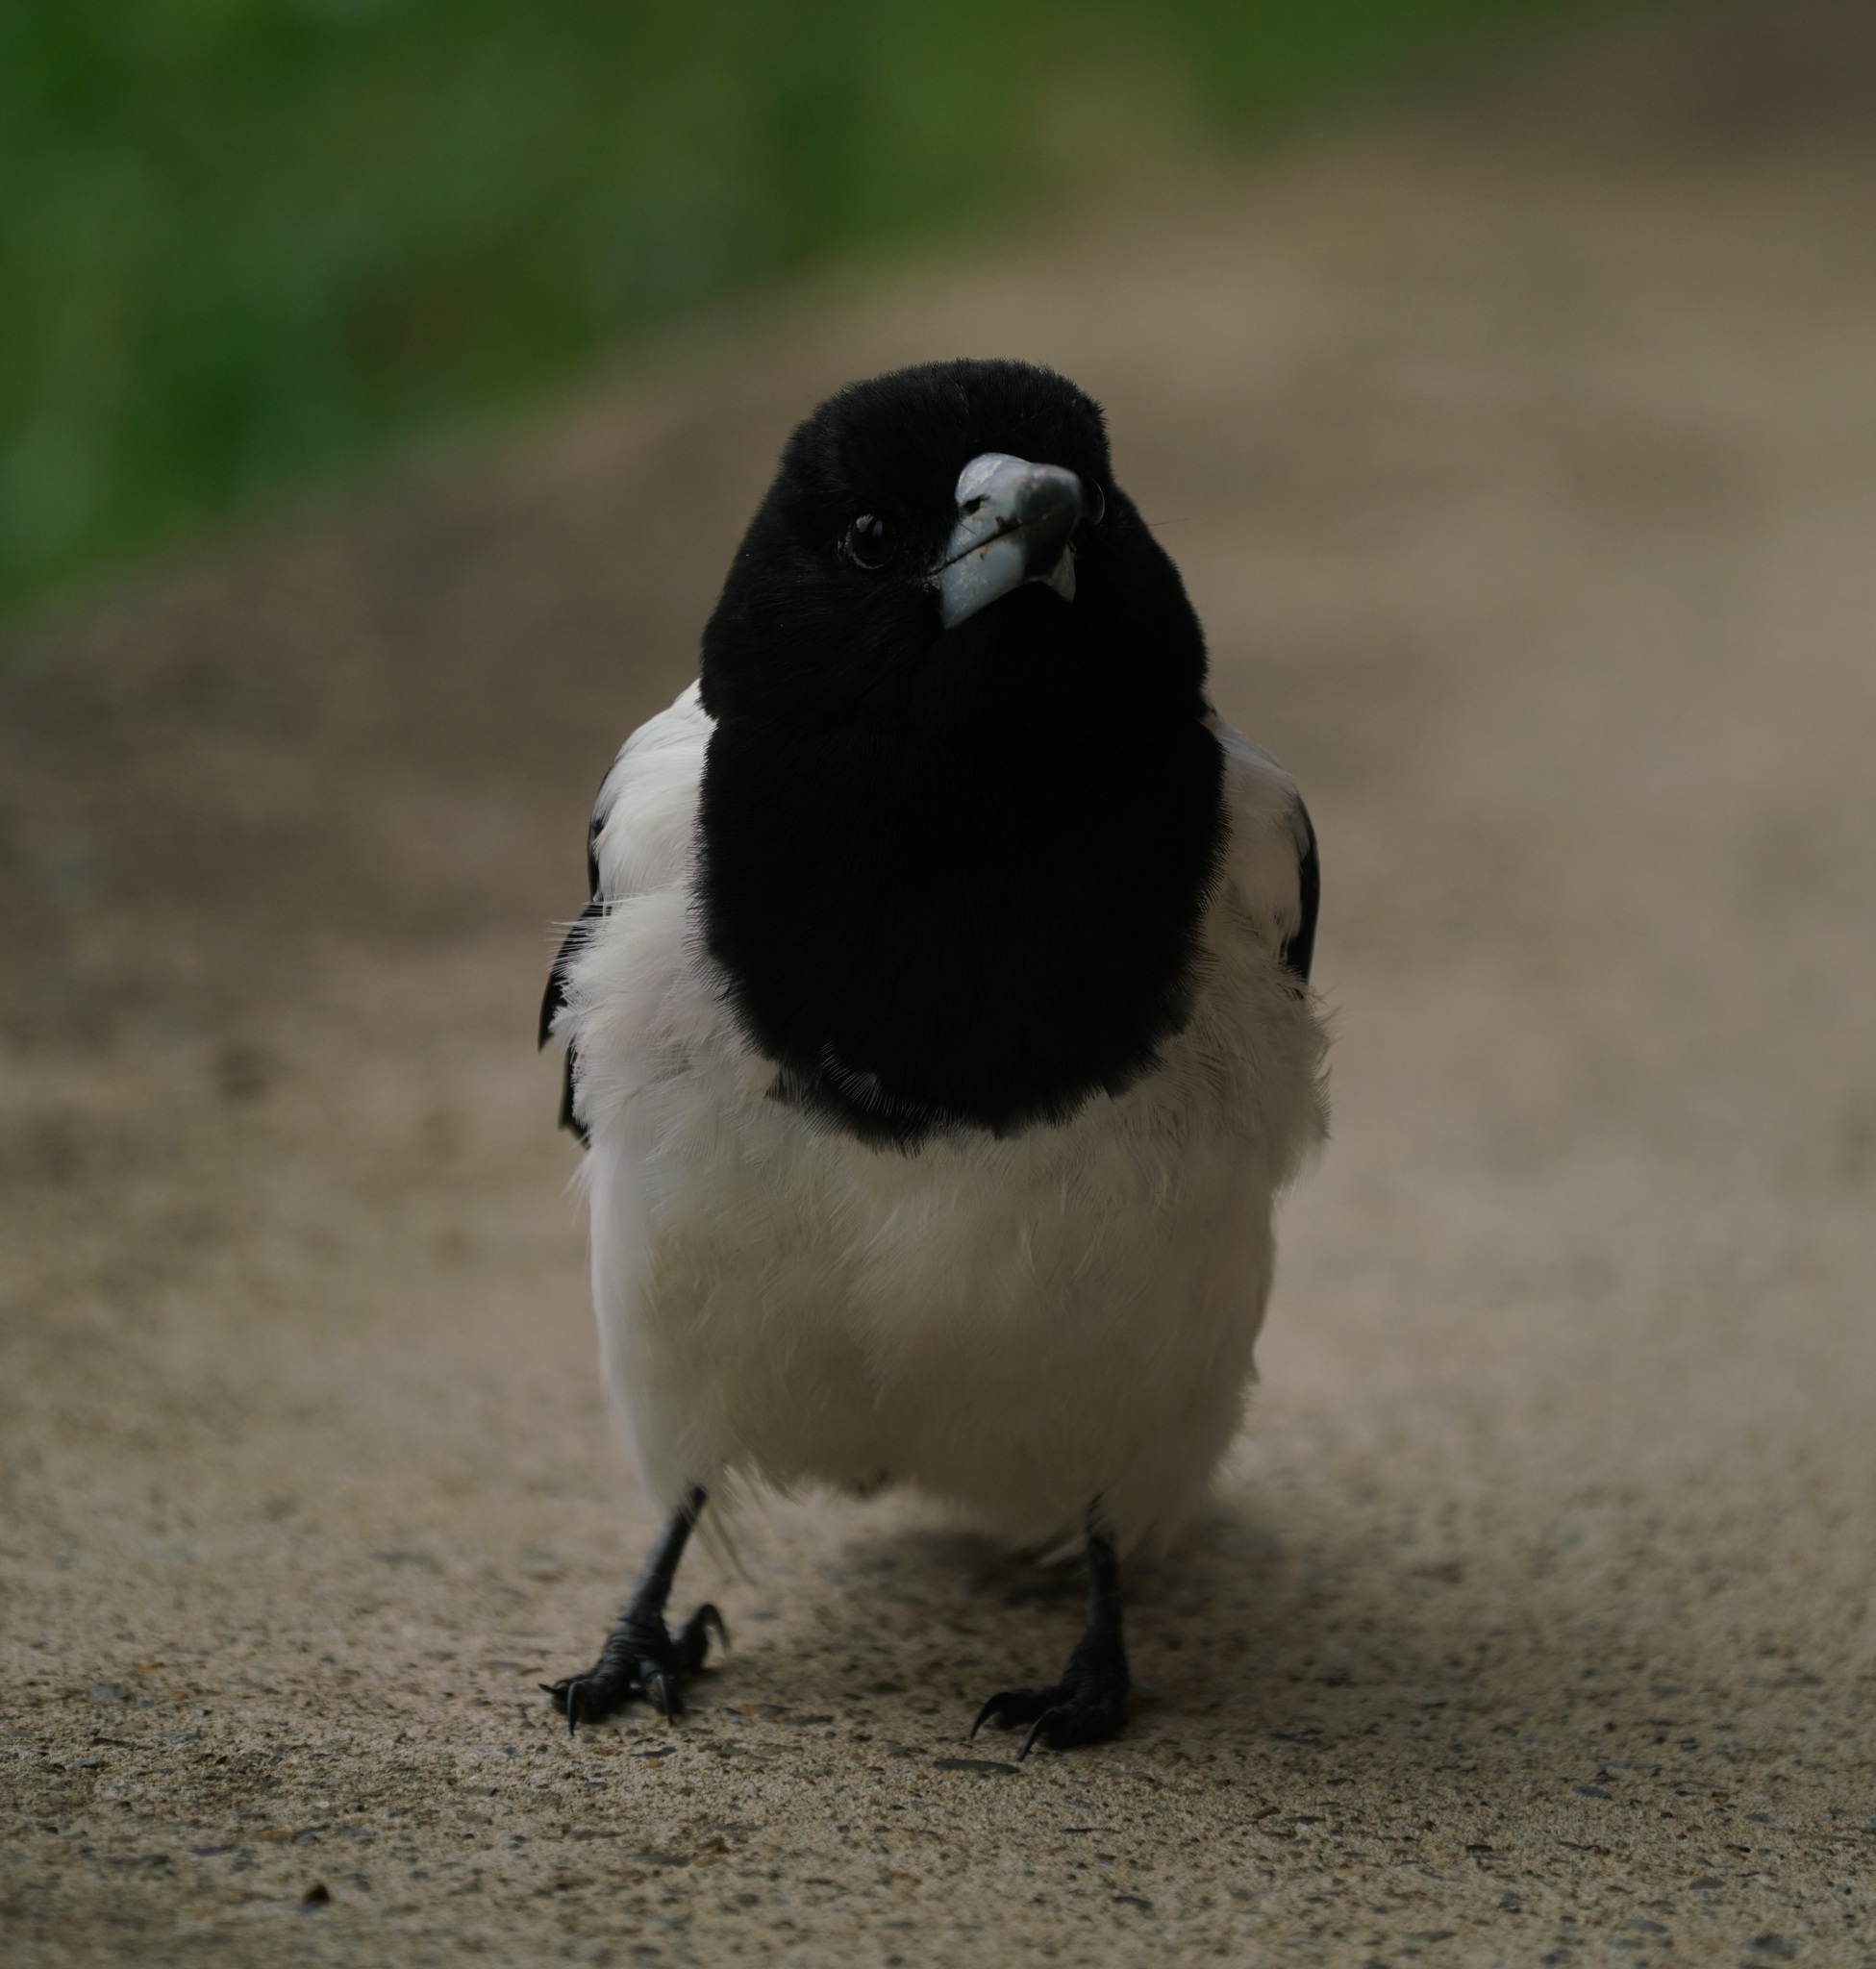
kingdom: Animalia
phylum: Chordata
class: Aves
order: Passeriformes
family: Cracticidae
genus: Cracticus
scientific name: Cracticus nigrogularis
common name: Pied butcherbird
